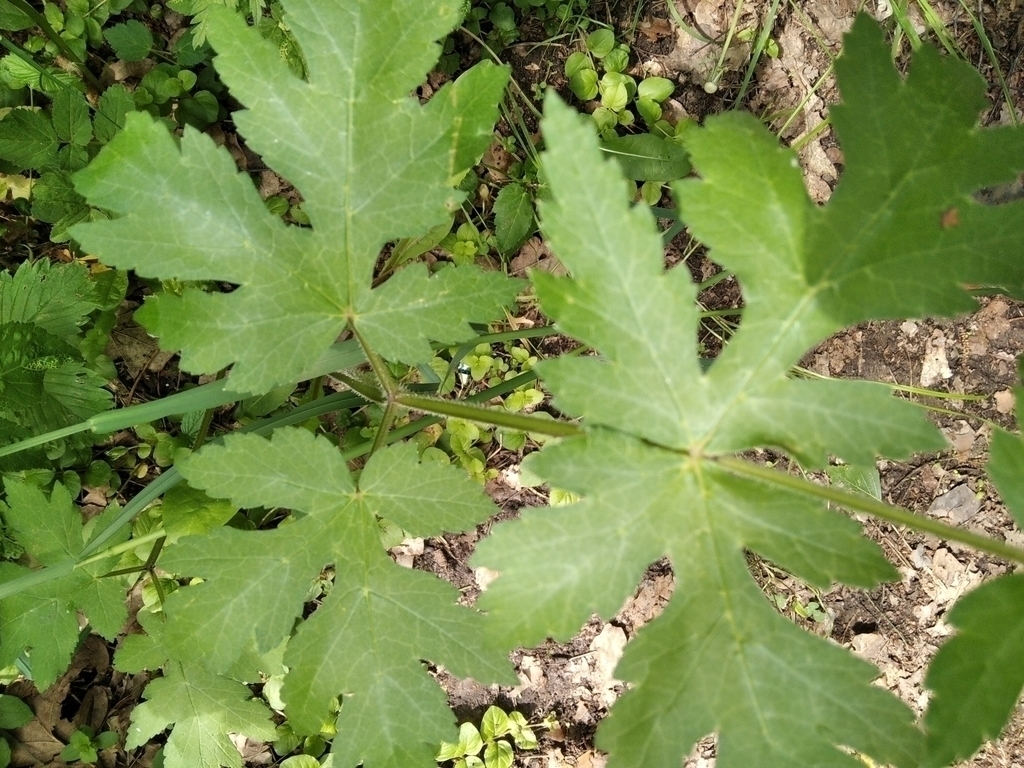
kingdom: Plantae
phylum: Tracheophyta
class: Magnoliopsida
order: Apiales
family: Apiaceae
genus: Heracleum
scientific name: Heracleum sphondylium
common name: Hogweed
